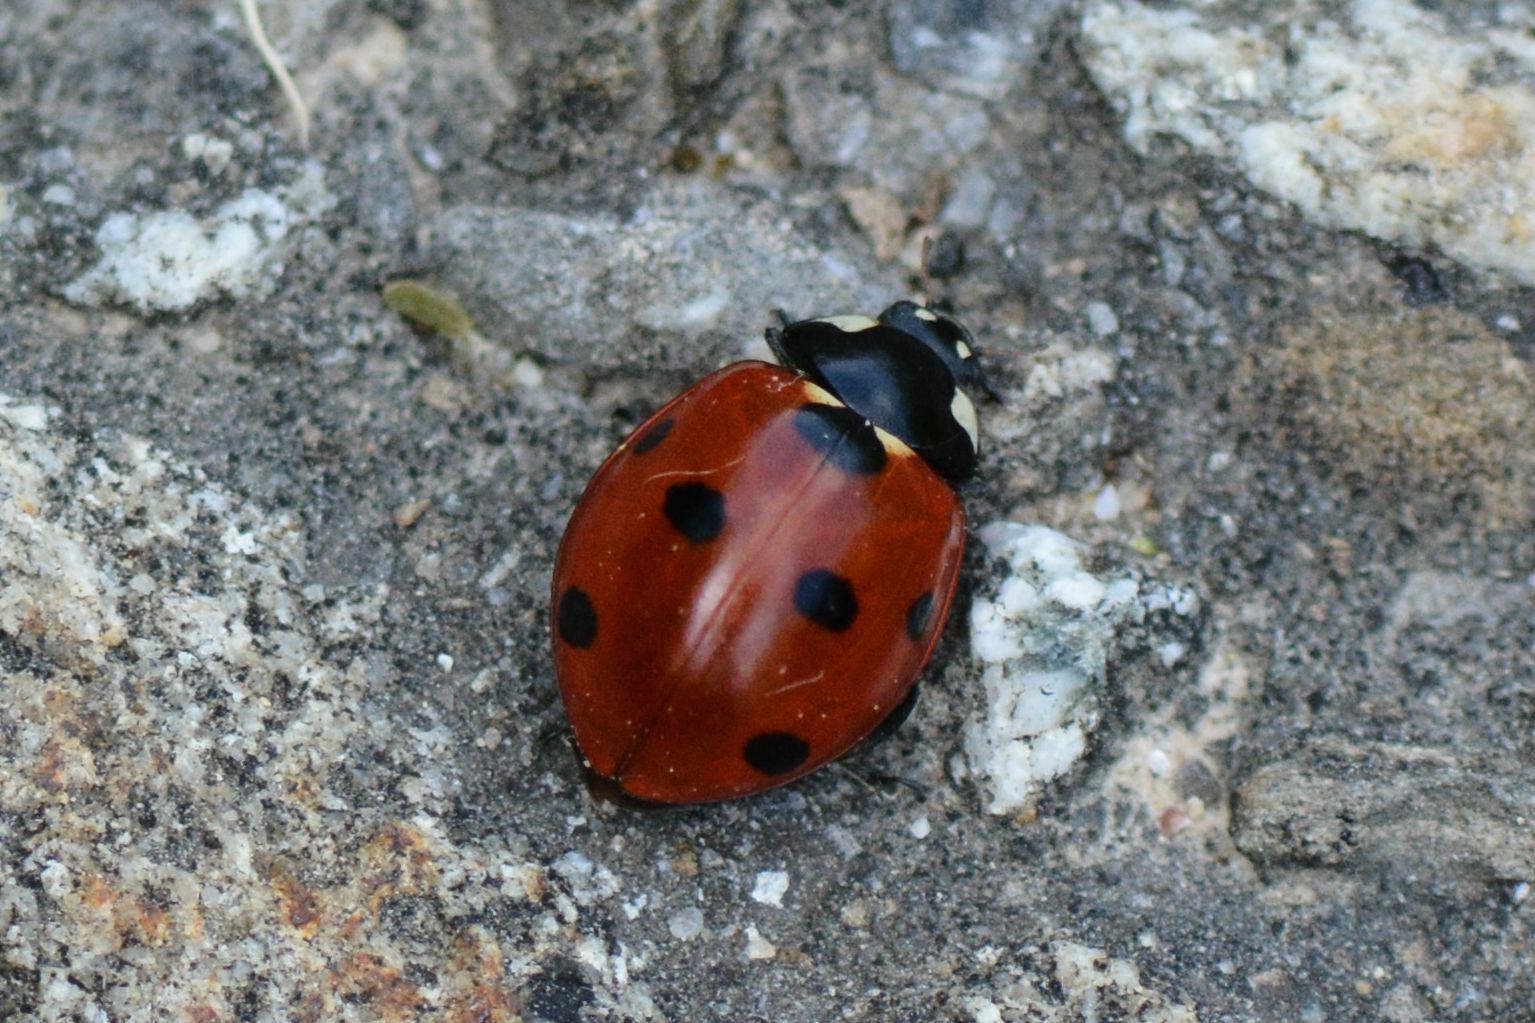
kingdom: Animalia
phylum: Arthropoda
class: Insecta
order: Coleoptera
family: Coccinellidae
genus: Coccinella
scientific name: Coccinella septempunctata
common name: Sevenspotted lady beetle
